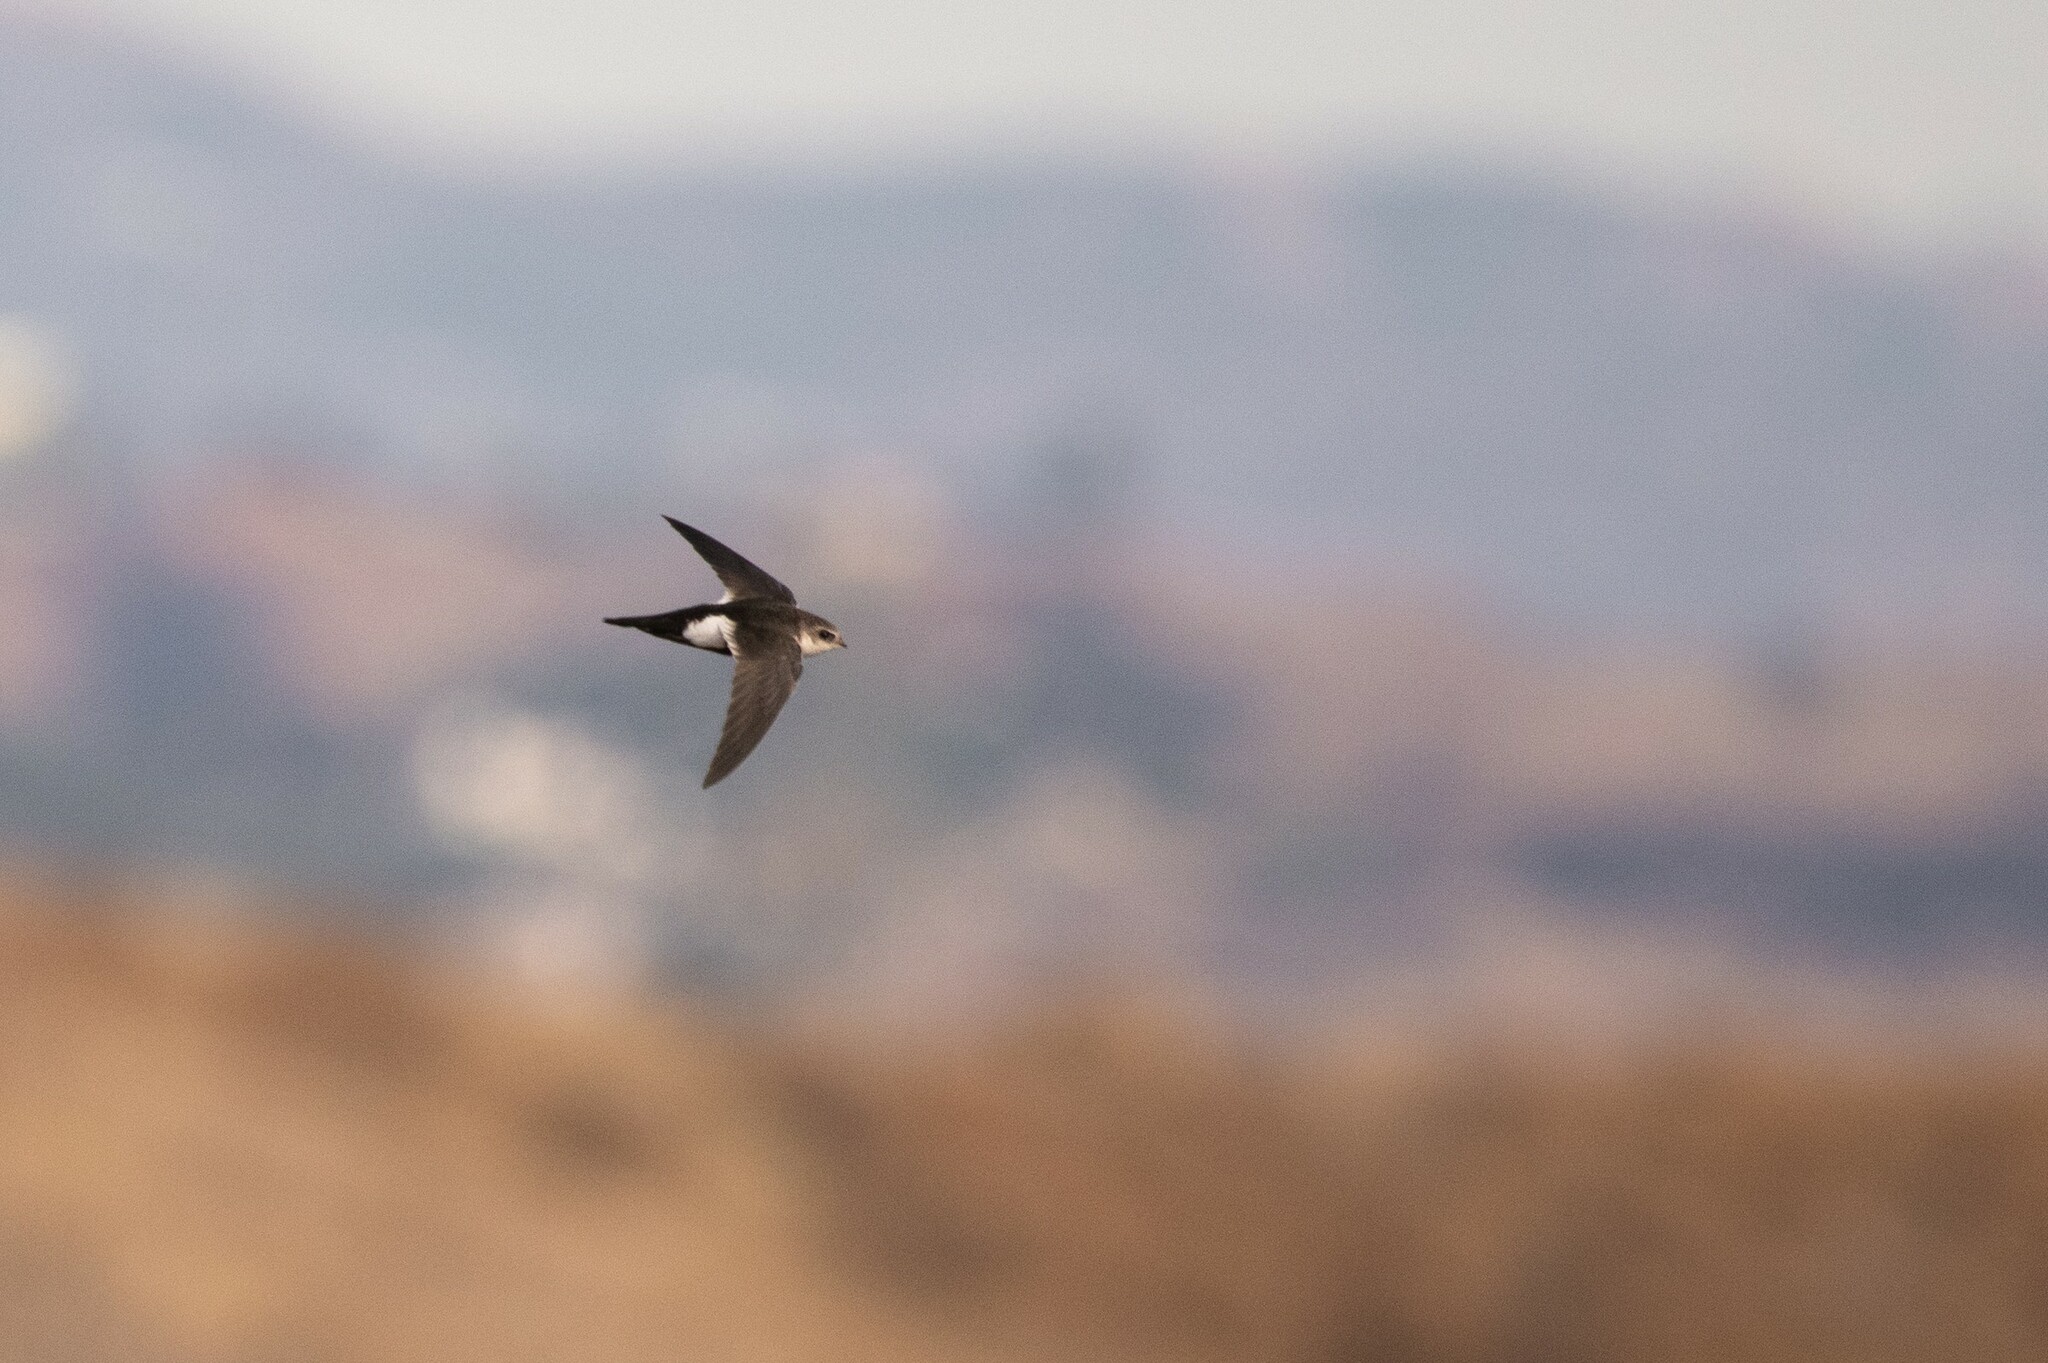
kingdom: Animalia
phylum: Chordata
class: Aves
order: Apodiformes
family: Apodidae
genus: Aeronautes
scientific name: Aeronautes saxatalis
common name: White-throated swift
